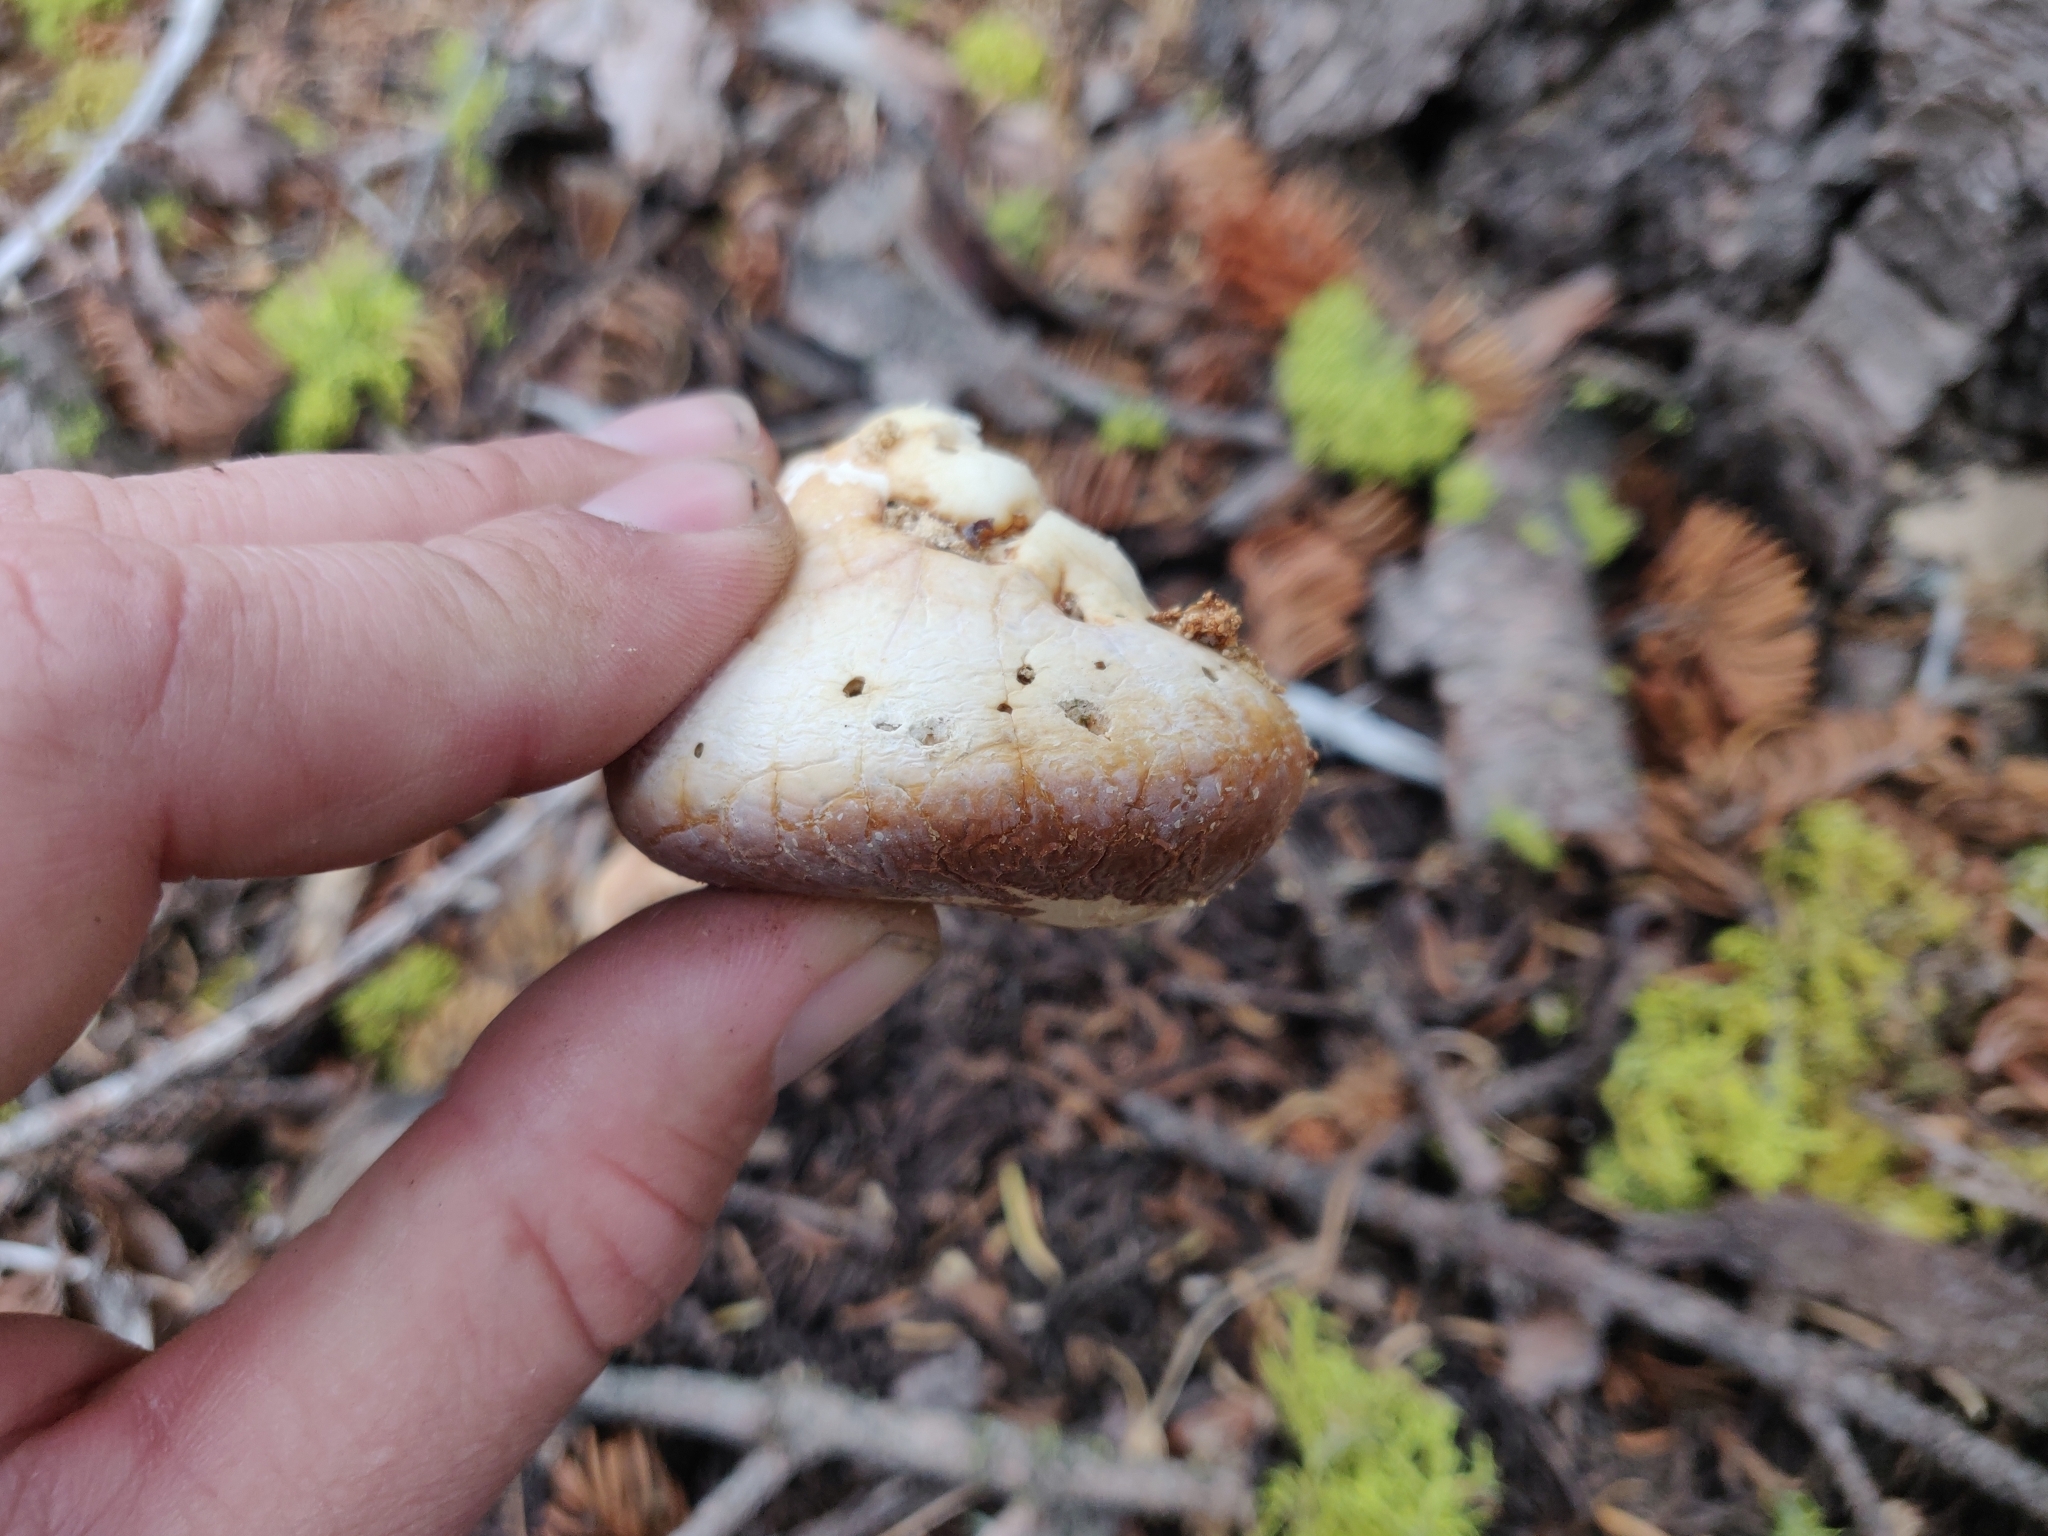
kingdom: Fungi
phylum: Basidiomycota
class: Agaricomycetes
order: Polyporales
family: Polyporaceae
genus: Cryptoporus
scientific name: Cryptoporus volvatus
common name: Veiled polypore
